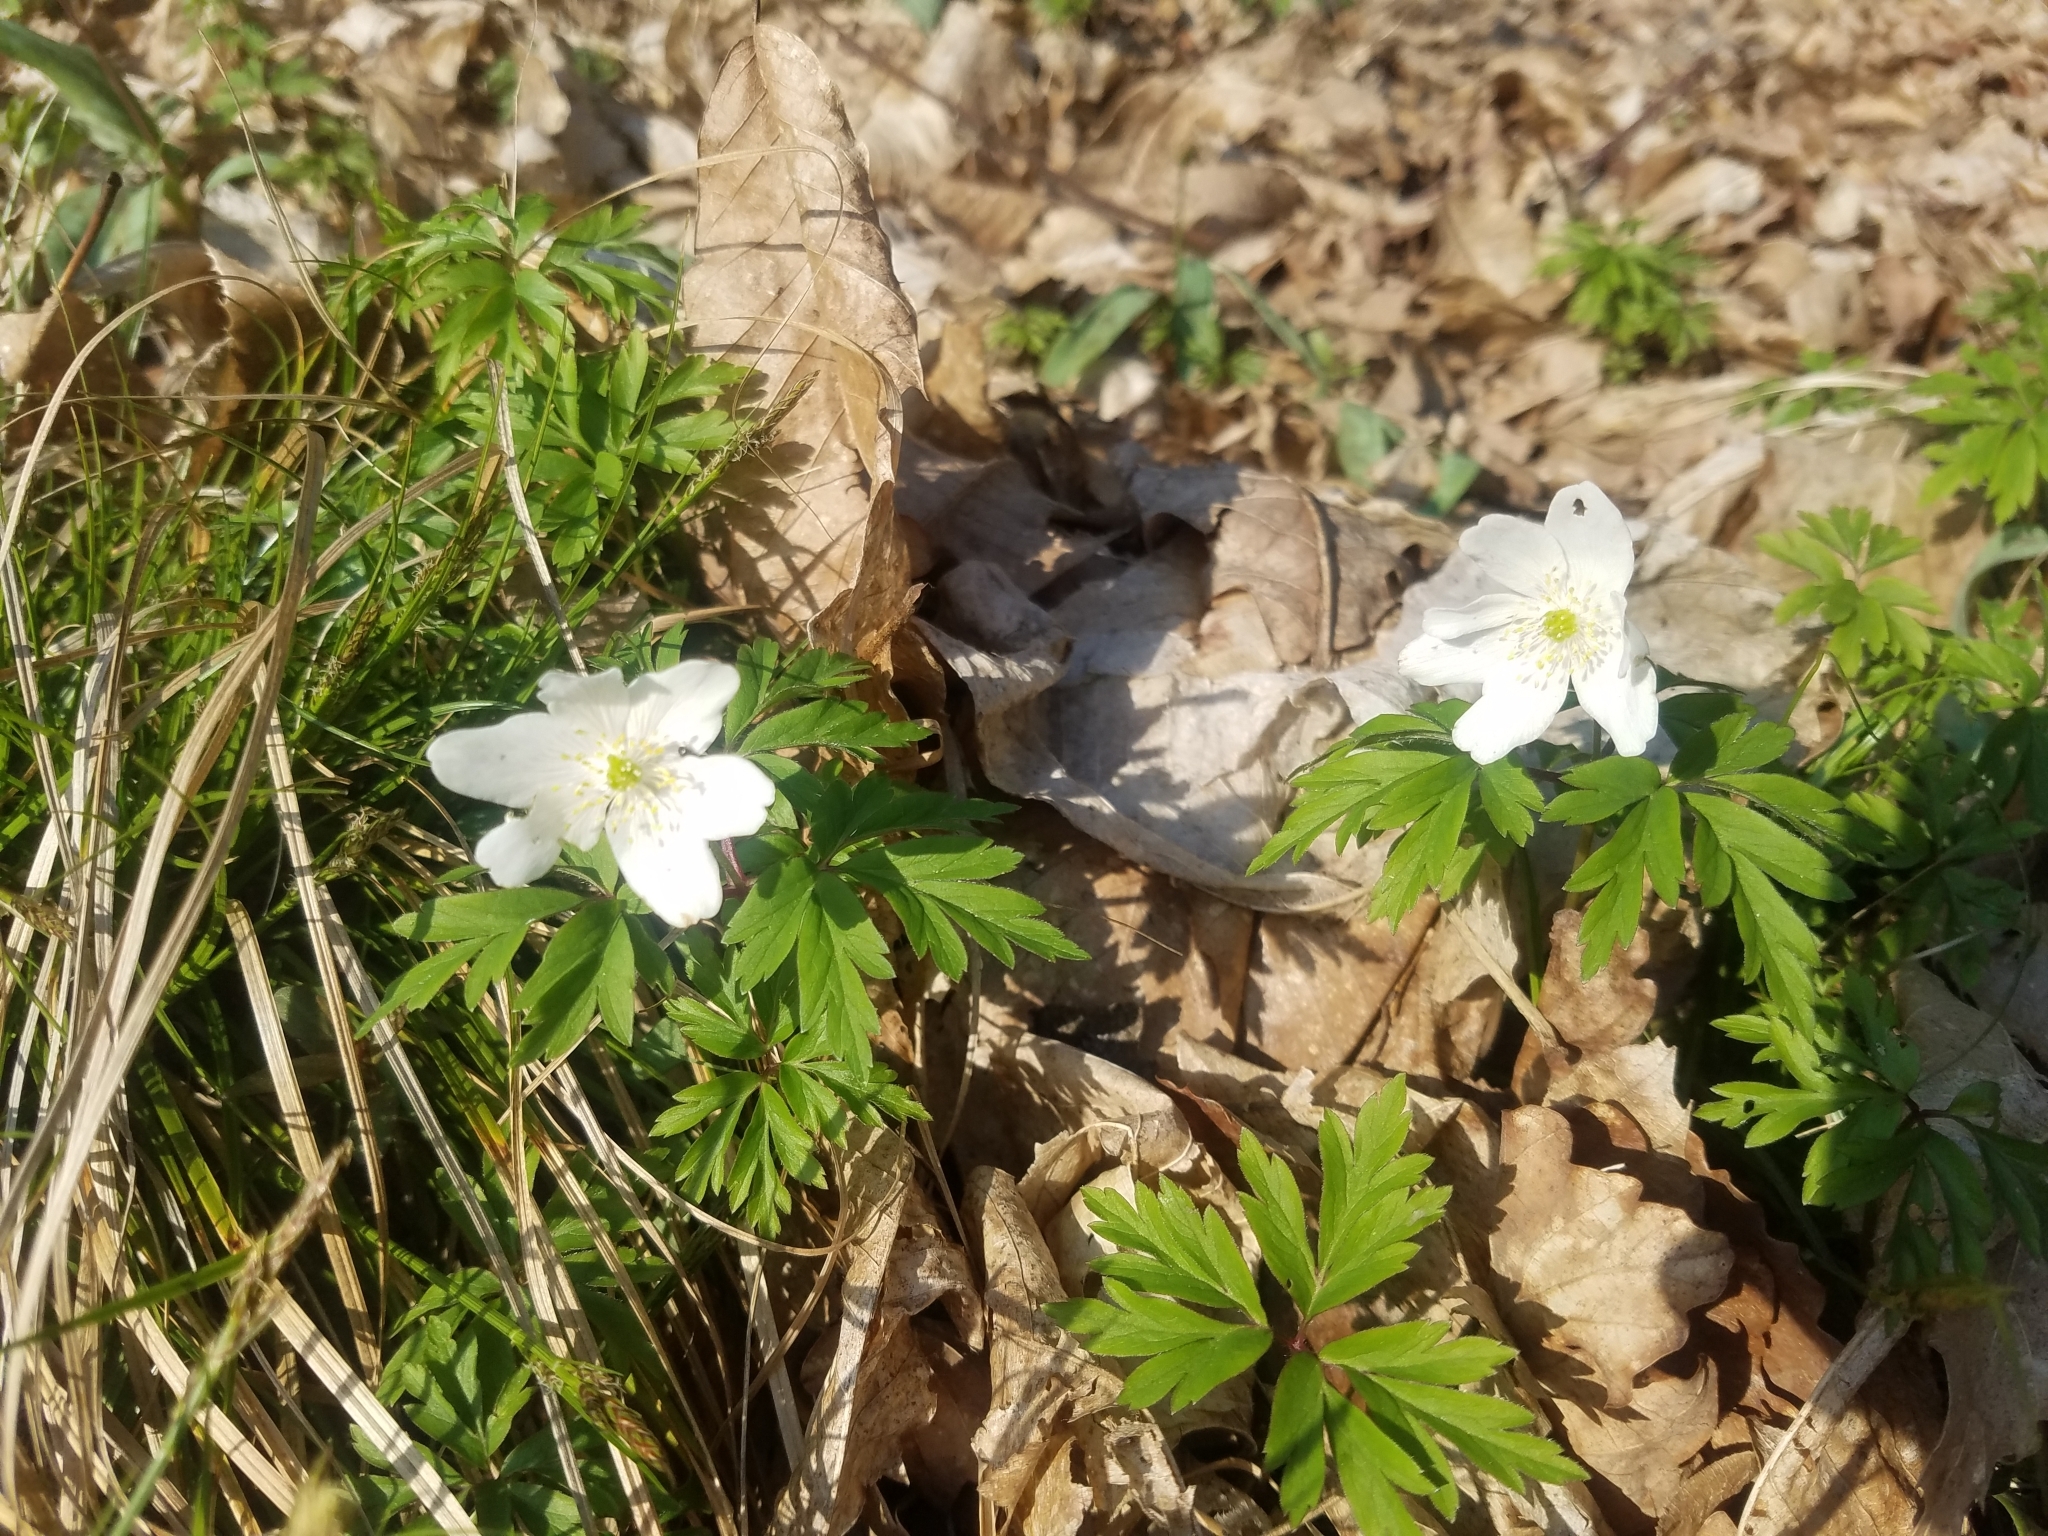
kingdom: Plantae
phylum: Tracheophyta
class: Magnoliopsida
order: Ranunculales
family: Ranunculaceae
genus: Anemone
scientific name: Anemone nemorosa
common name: Wood anemone
